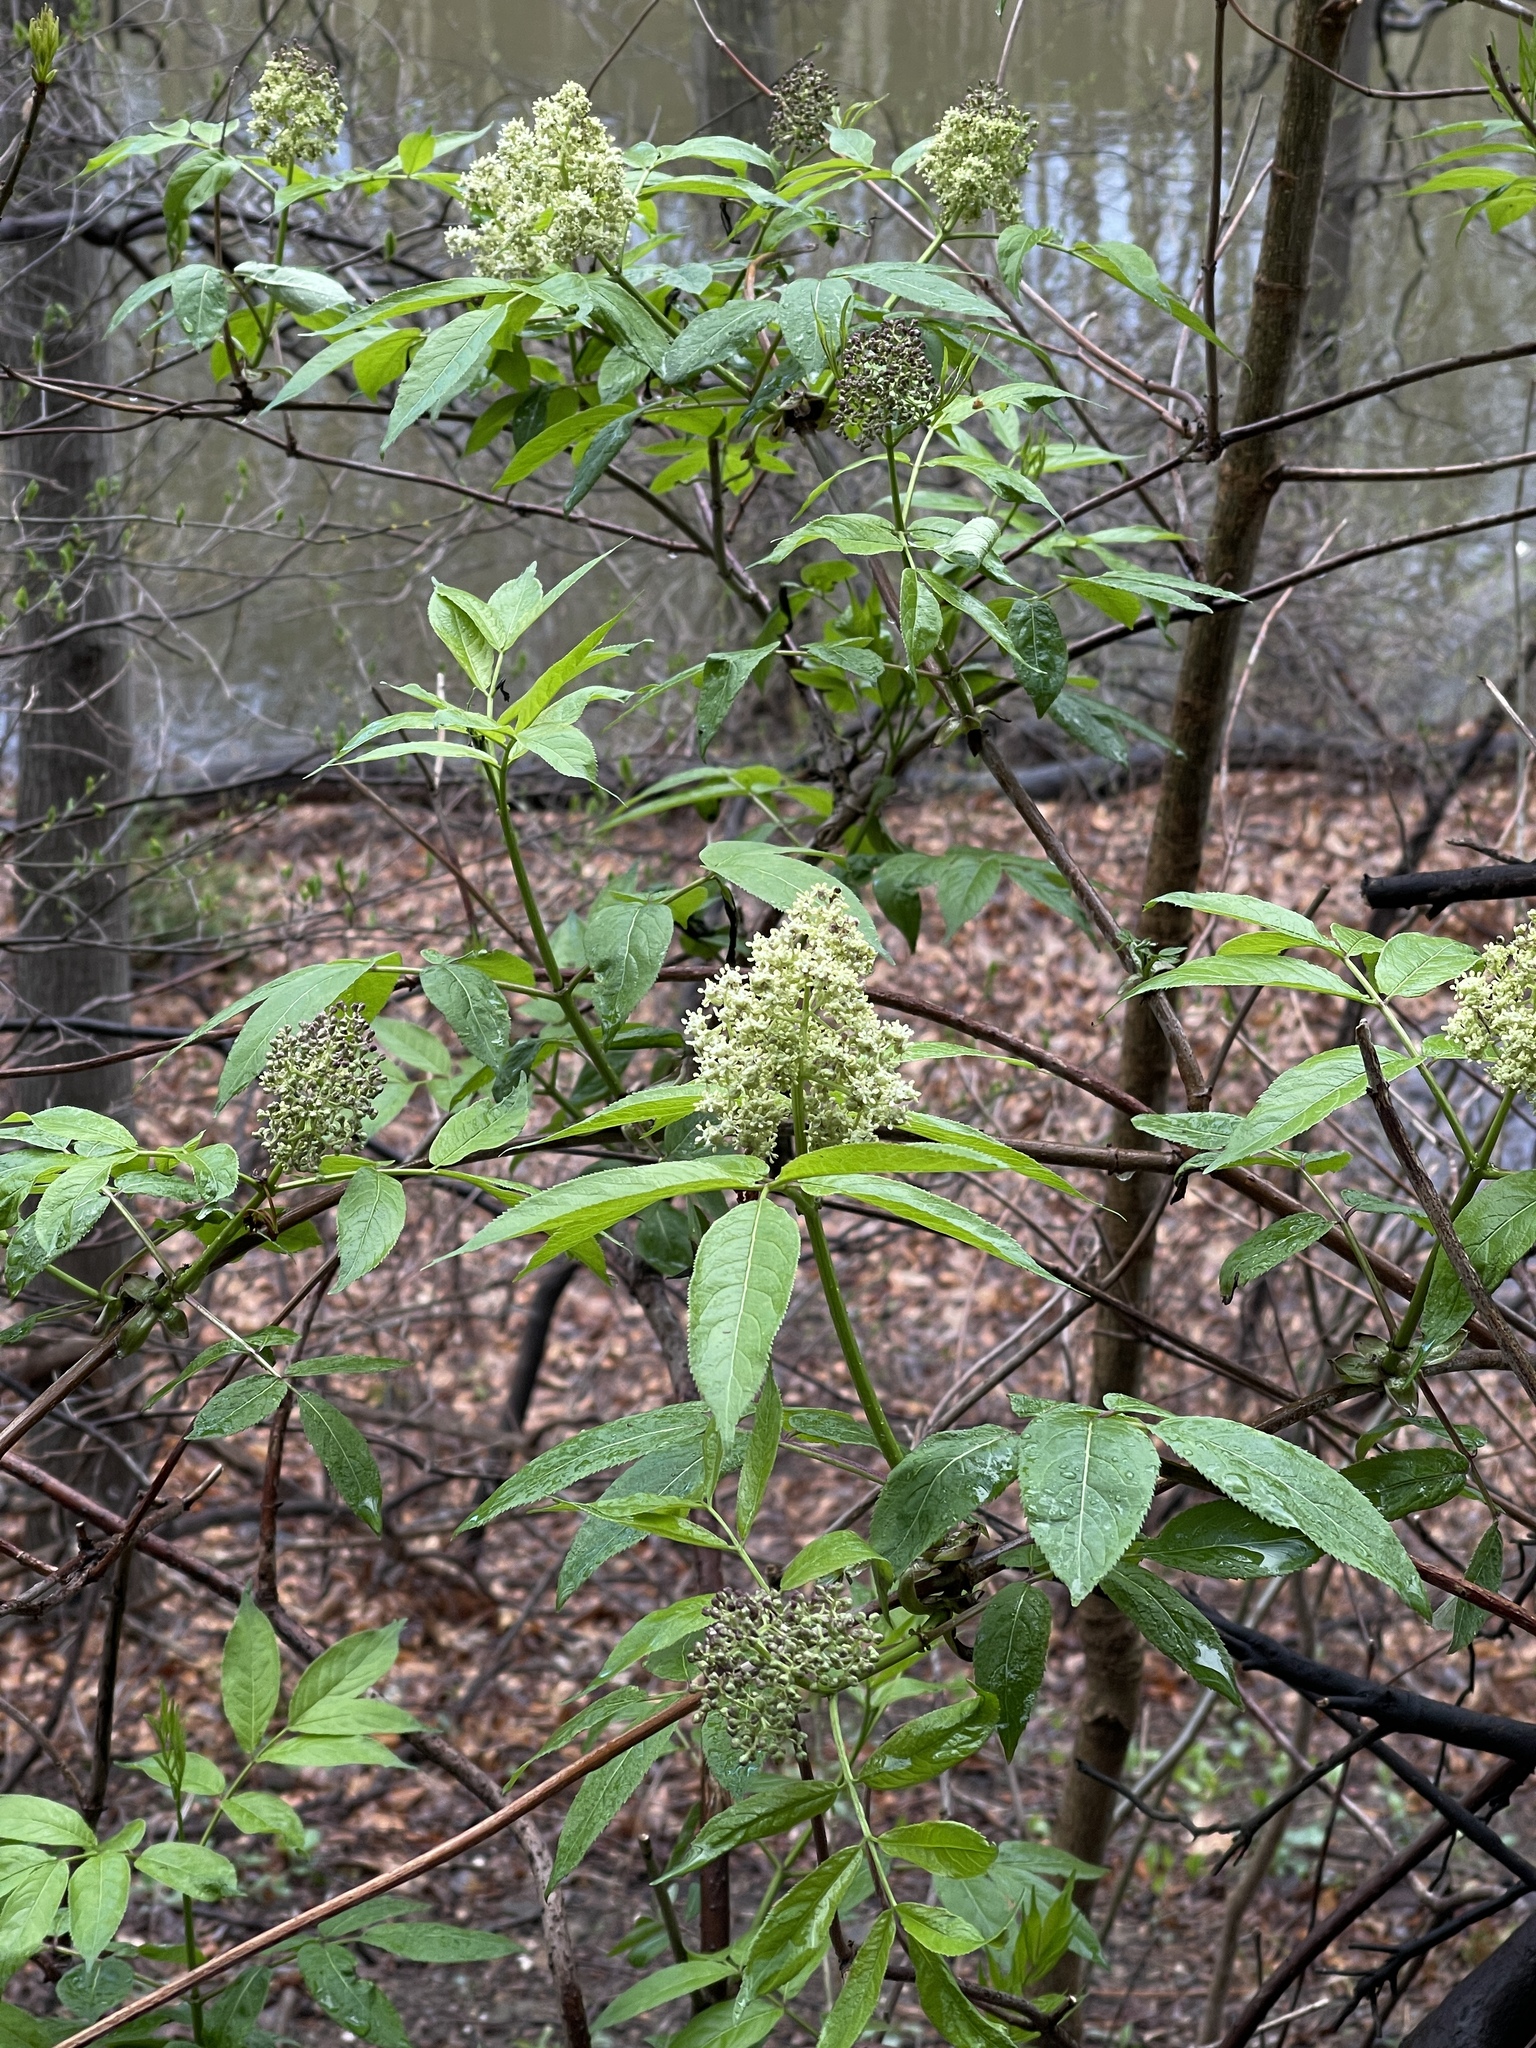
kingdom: Plantae
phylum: Tracheophyta
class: Magnoliopsida
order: Dipsacales
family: Viburnaceae
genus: Sambucus
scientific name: Sambucus racemosa
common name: Red-berried elder
